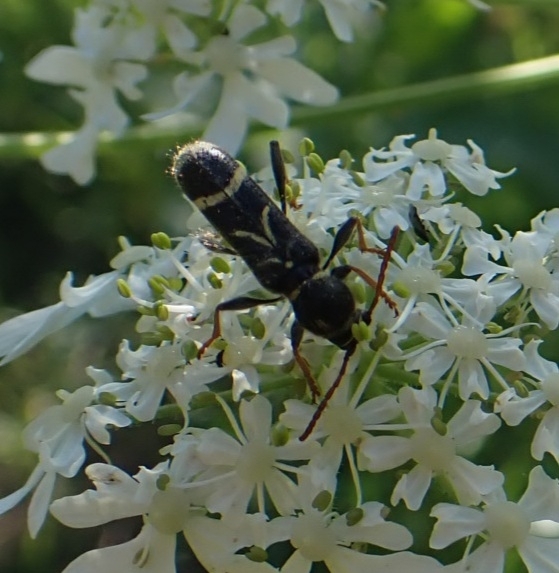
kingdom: Animalia
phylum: Arthropoda
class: Insecta
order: Coleoptera
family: Cerambycidae
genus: Cyrtoclytus
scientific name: Cyrtoclytus capra
